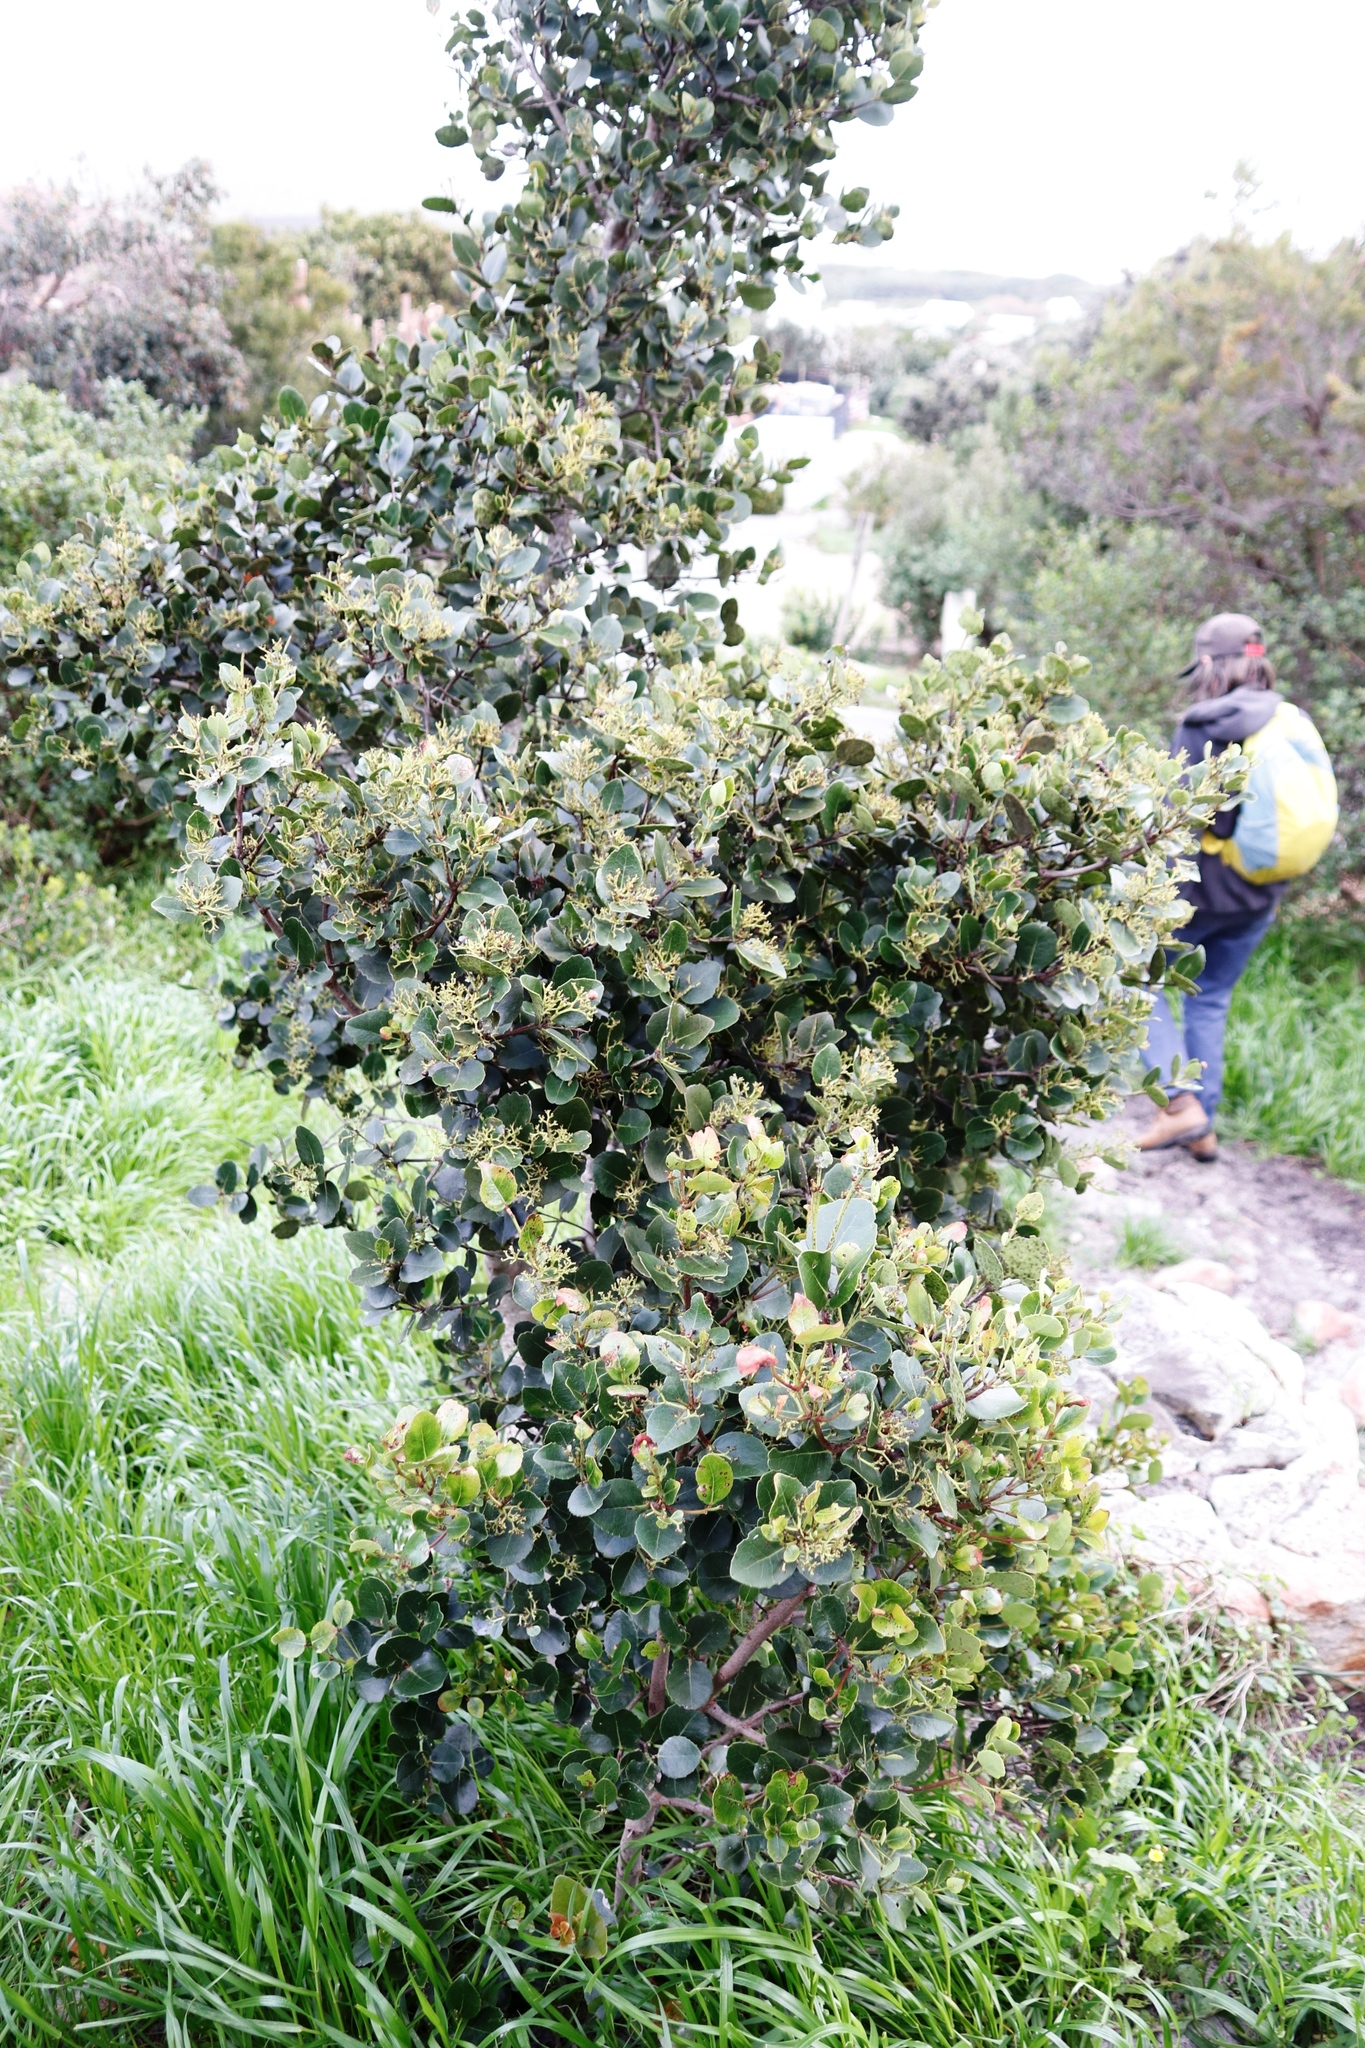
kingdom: Plantae
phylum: Tracheophyta
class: Magnoliopsida
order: Celastrales
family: Celastraceae
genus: Cassine
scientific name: Cassine peragua
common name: Cape saffron
